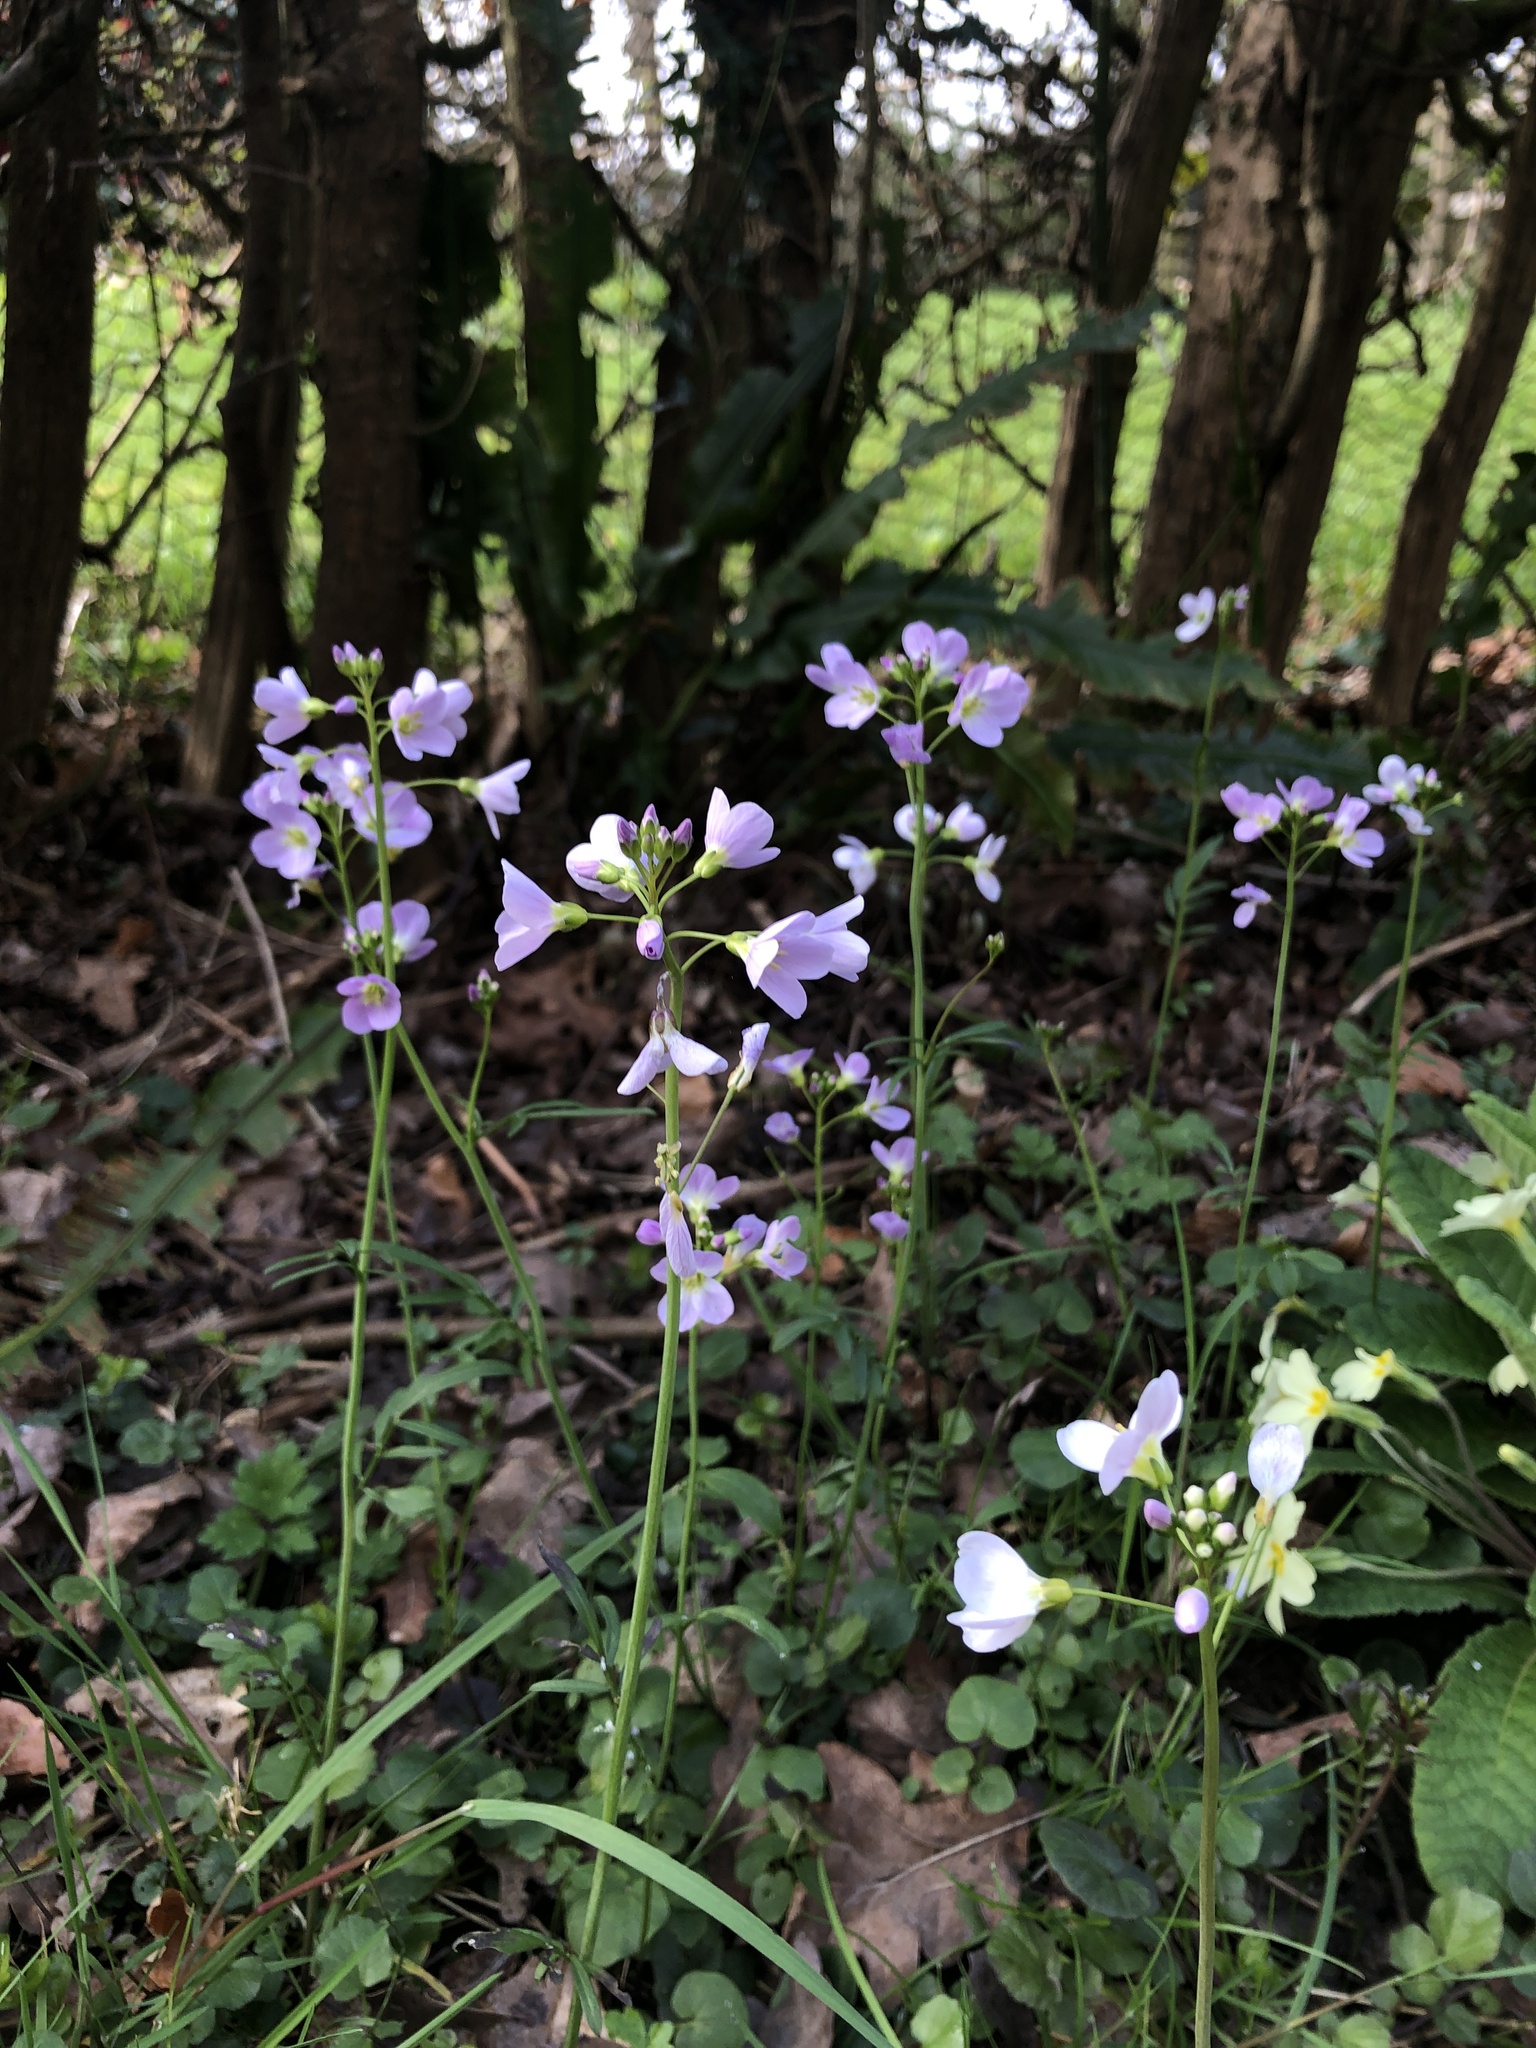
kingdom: Plantae
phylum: Tracheophyta
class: Magnoliopsida
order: Brassicales
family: Brassicaceae
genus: Cardamine
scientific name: Cardamine pratensis
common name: Cuckoo flower
